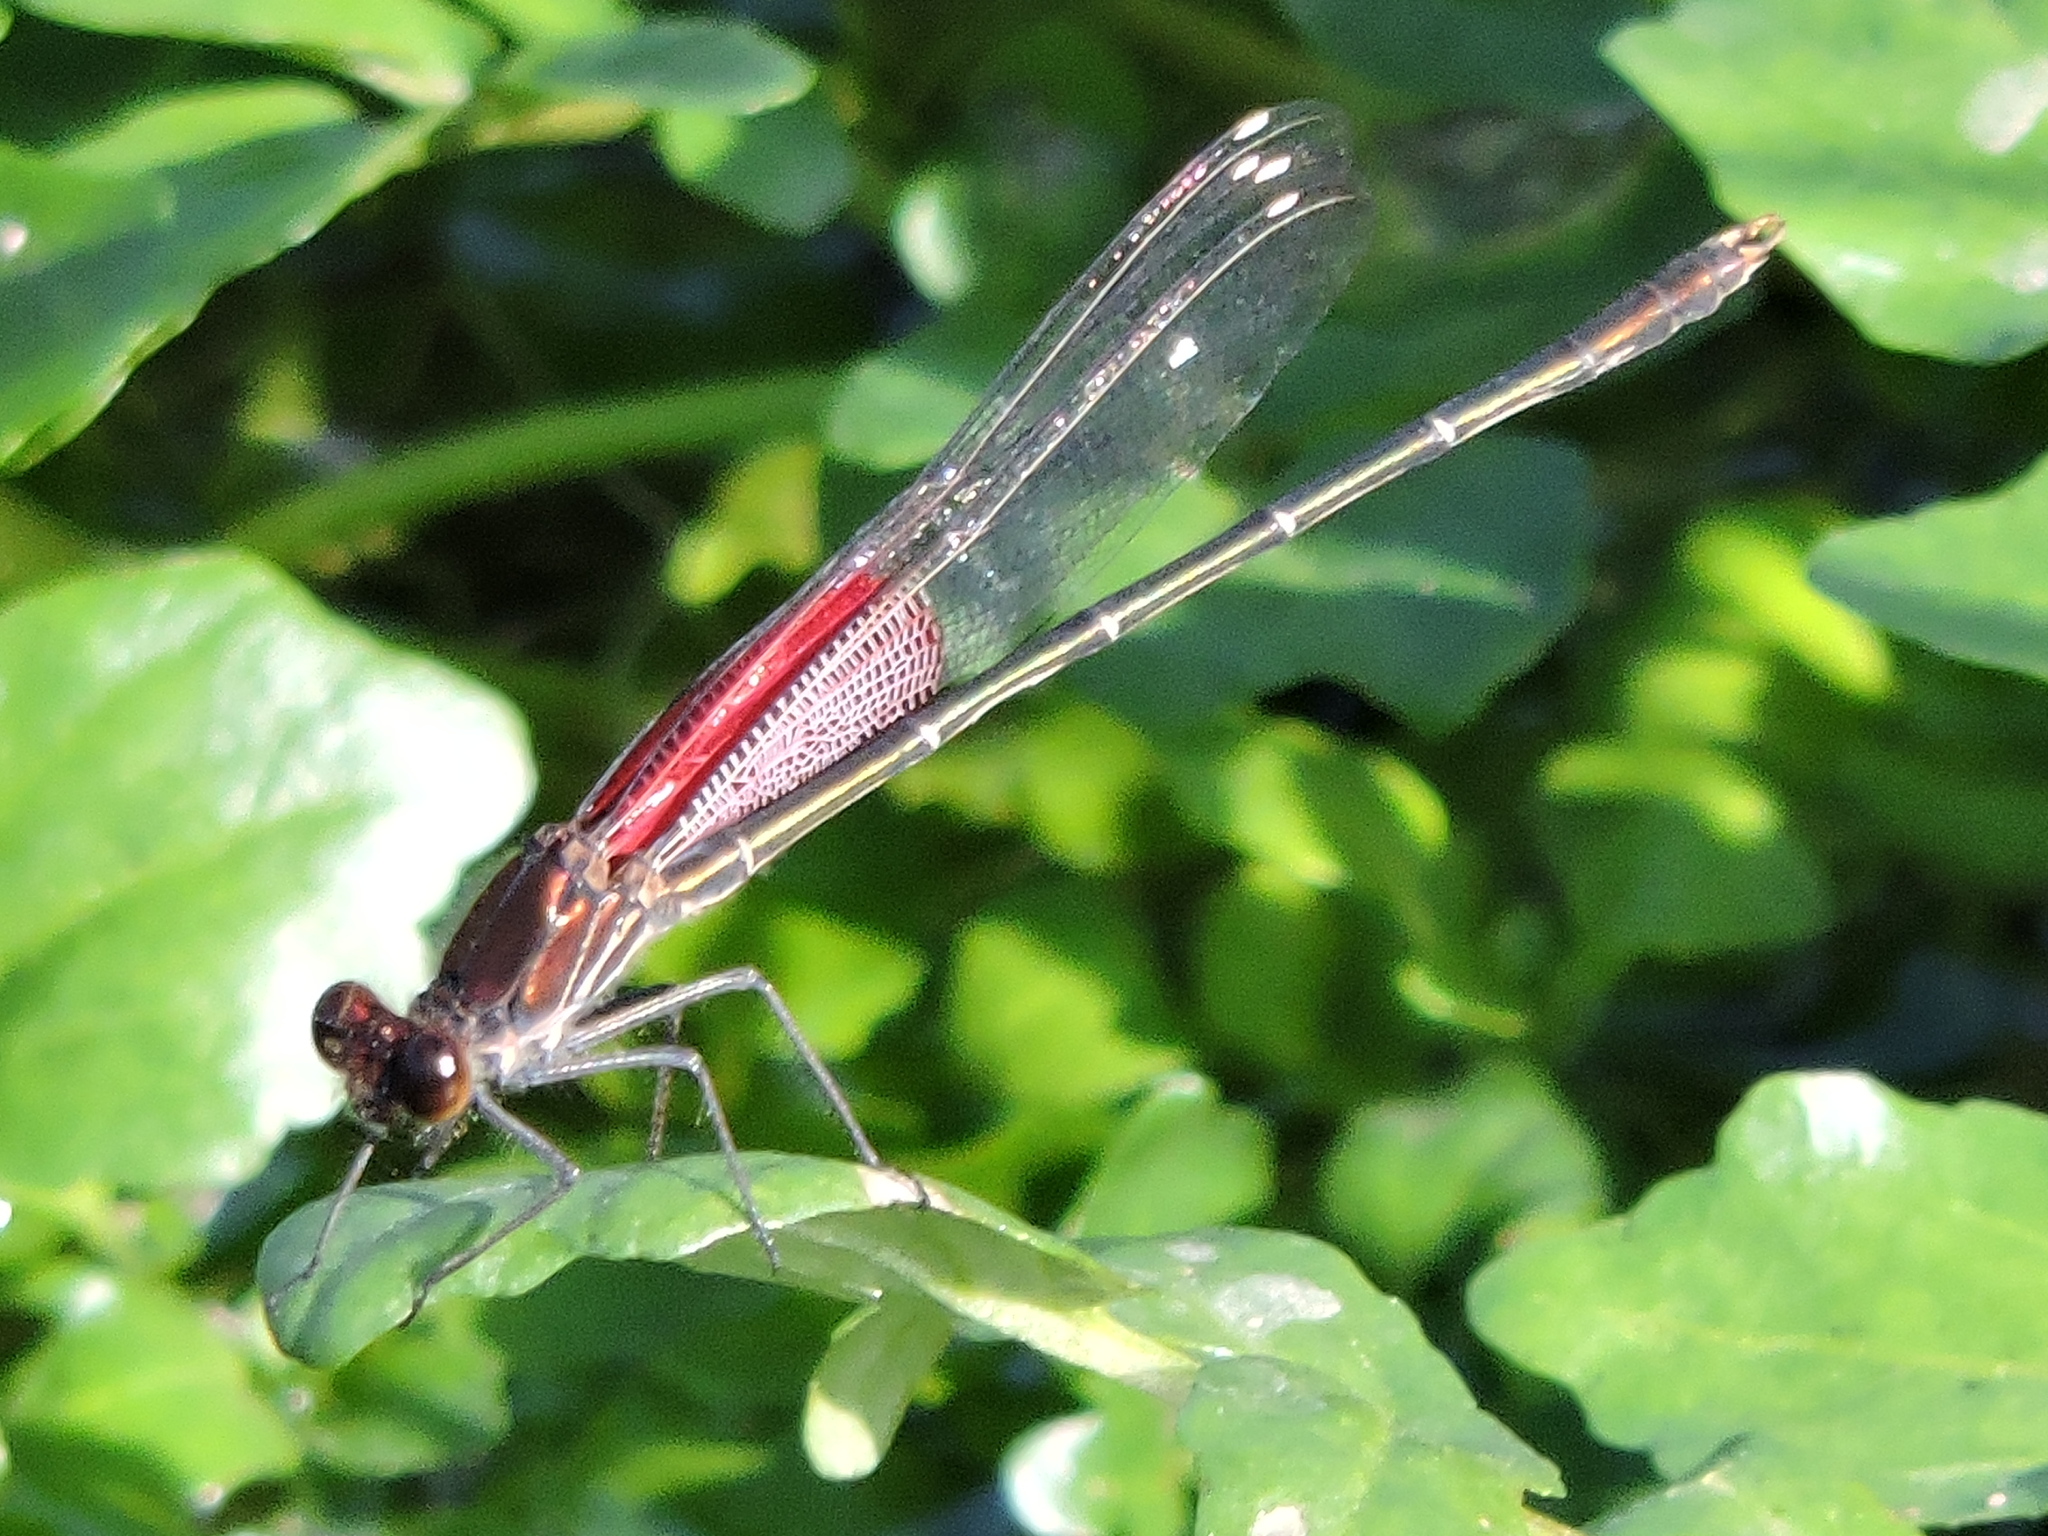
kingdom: Animalia
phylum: Arthropoda
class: Insecta
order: Odonata
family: Calopterygidae
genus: Hetaerina
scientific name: Hetaerina americana
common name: American rubyspot
